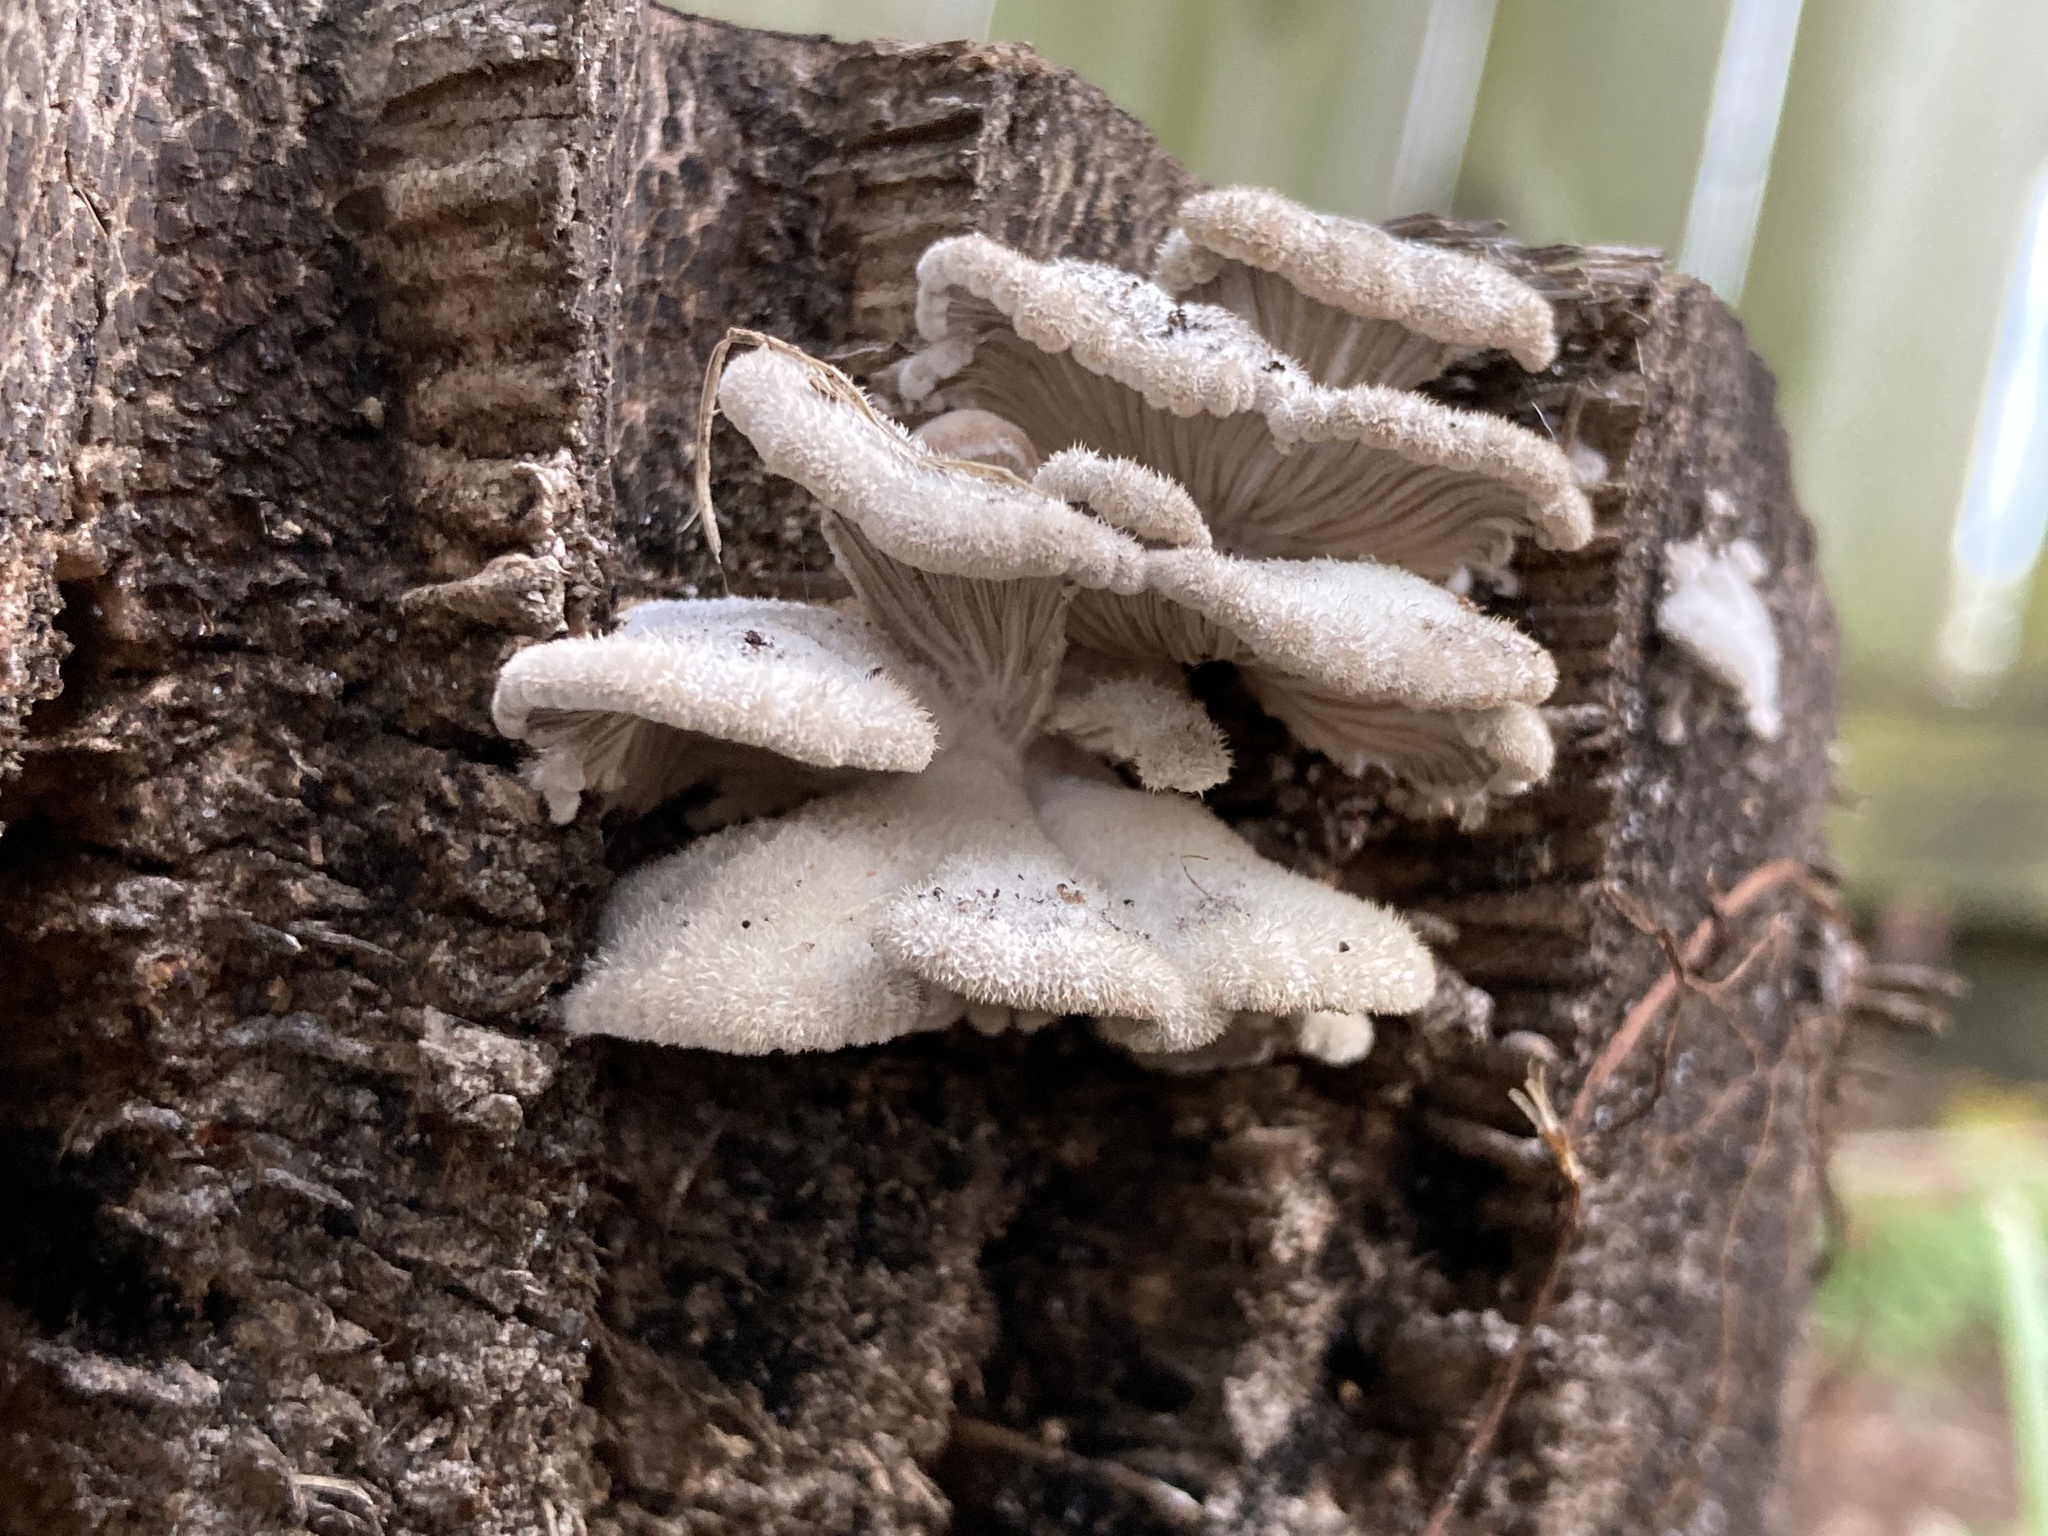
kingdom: Fungi
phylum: Basidiomycota
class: Agaricomycetes
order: Agaricales
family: Schizophyllaceae
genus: Schizophyllum
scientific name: Schizophyllum commune
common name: Common porecrust
